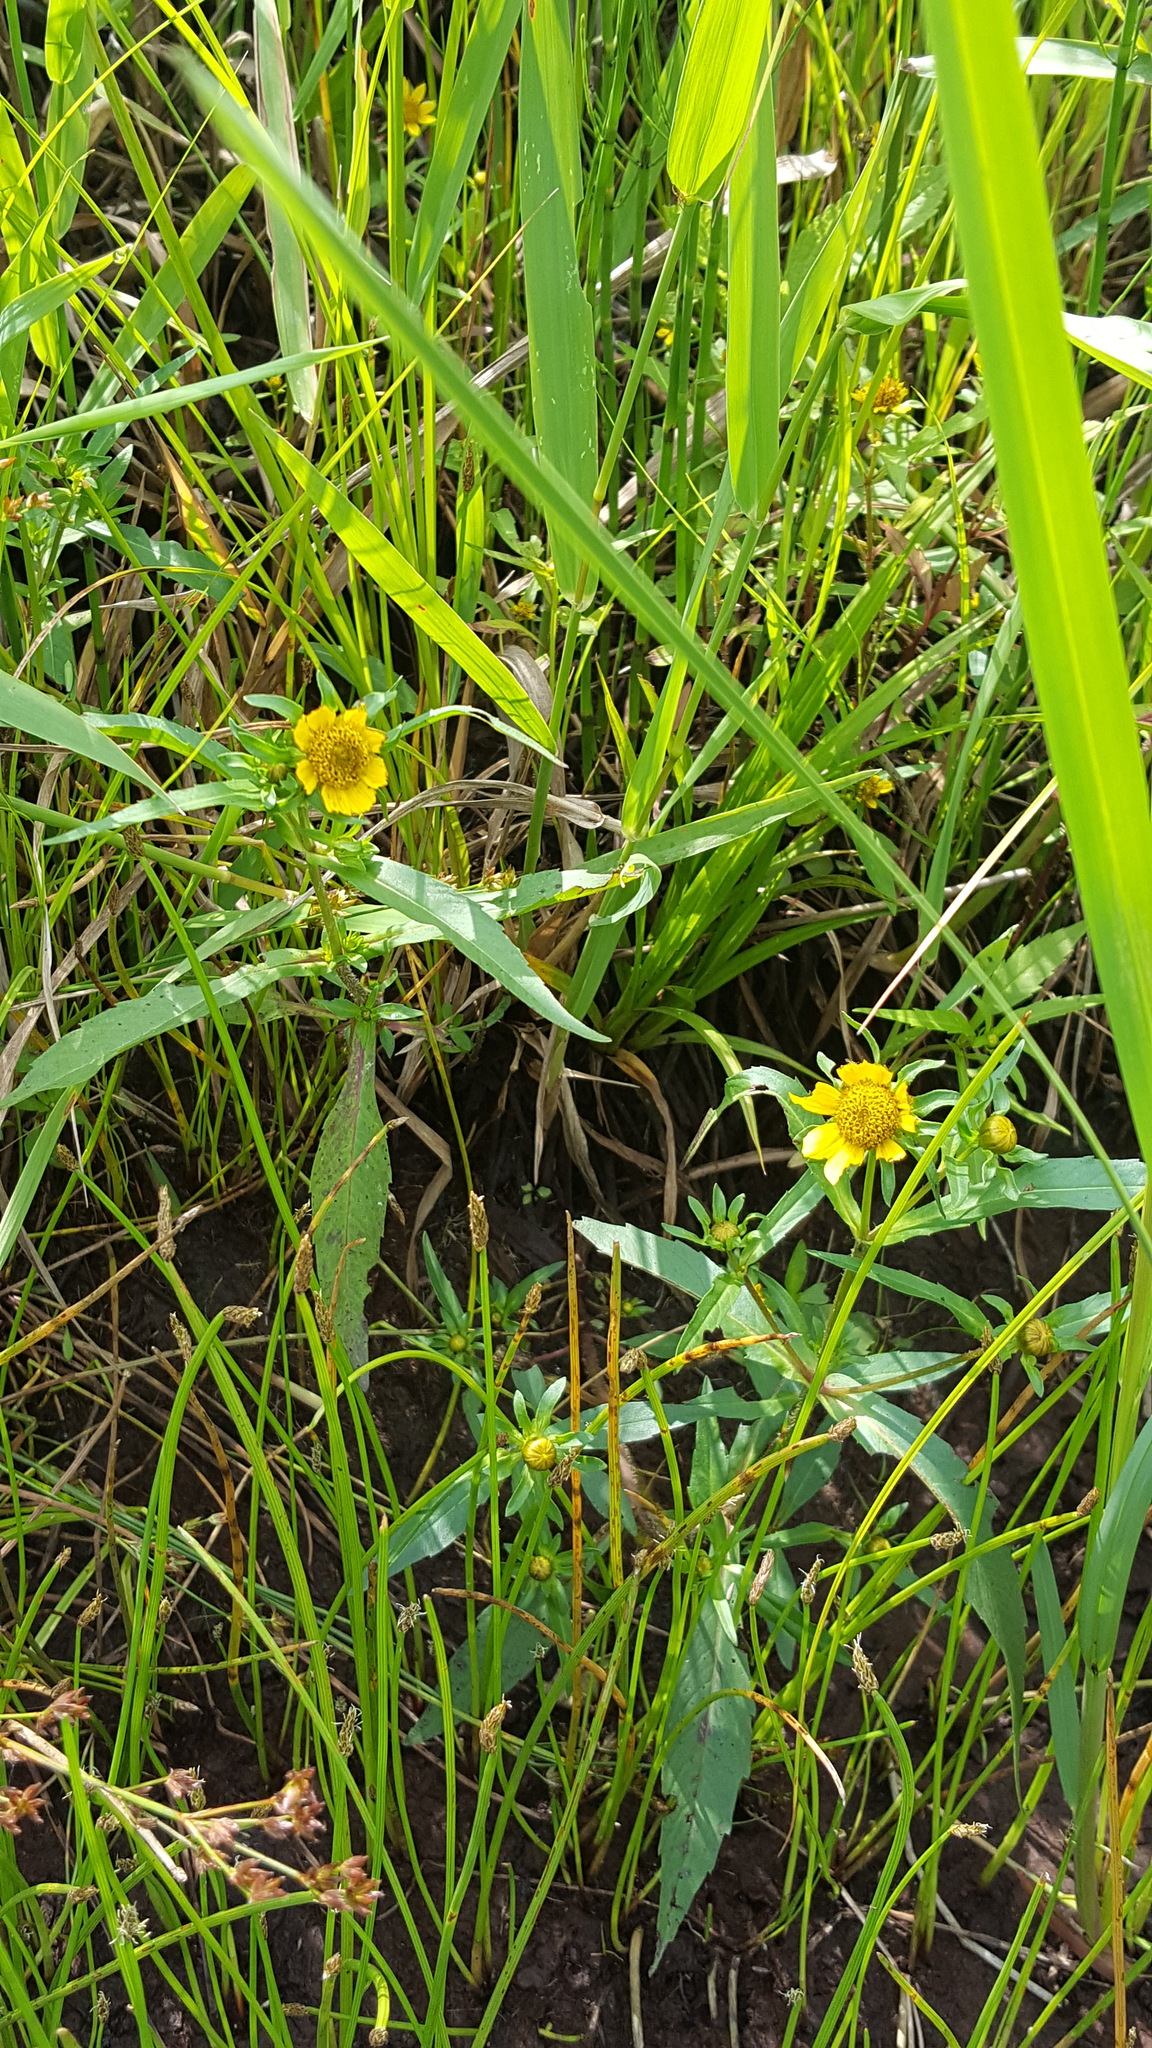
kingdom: Plantae
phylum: Tracheophyta
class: Magnoliopsida
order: Asterales
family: Asteraceae
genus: Bidens
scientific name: Bidens cernua
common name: Nodding bur-marigold
